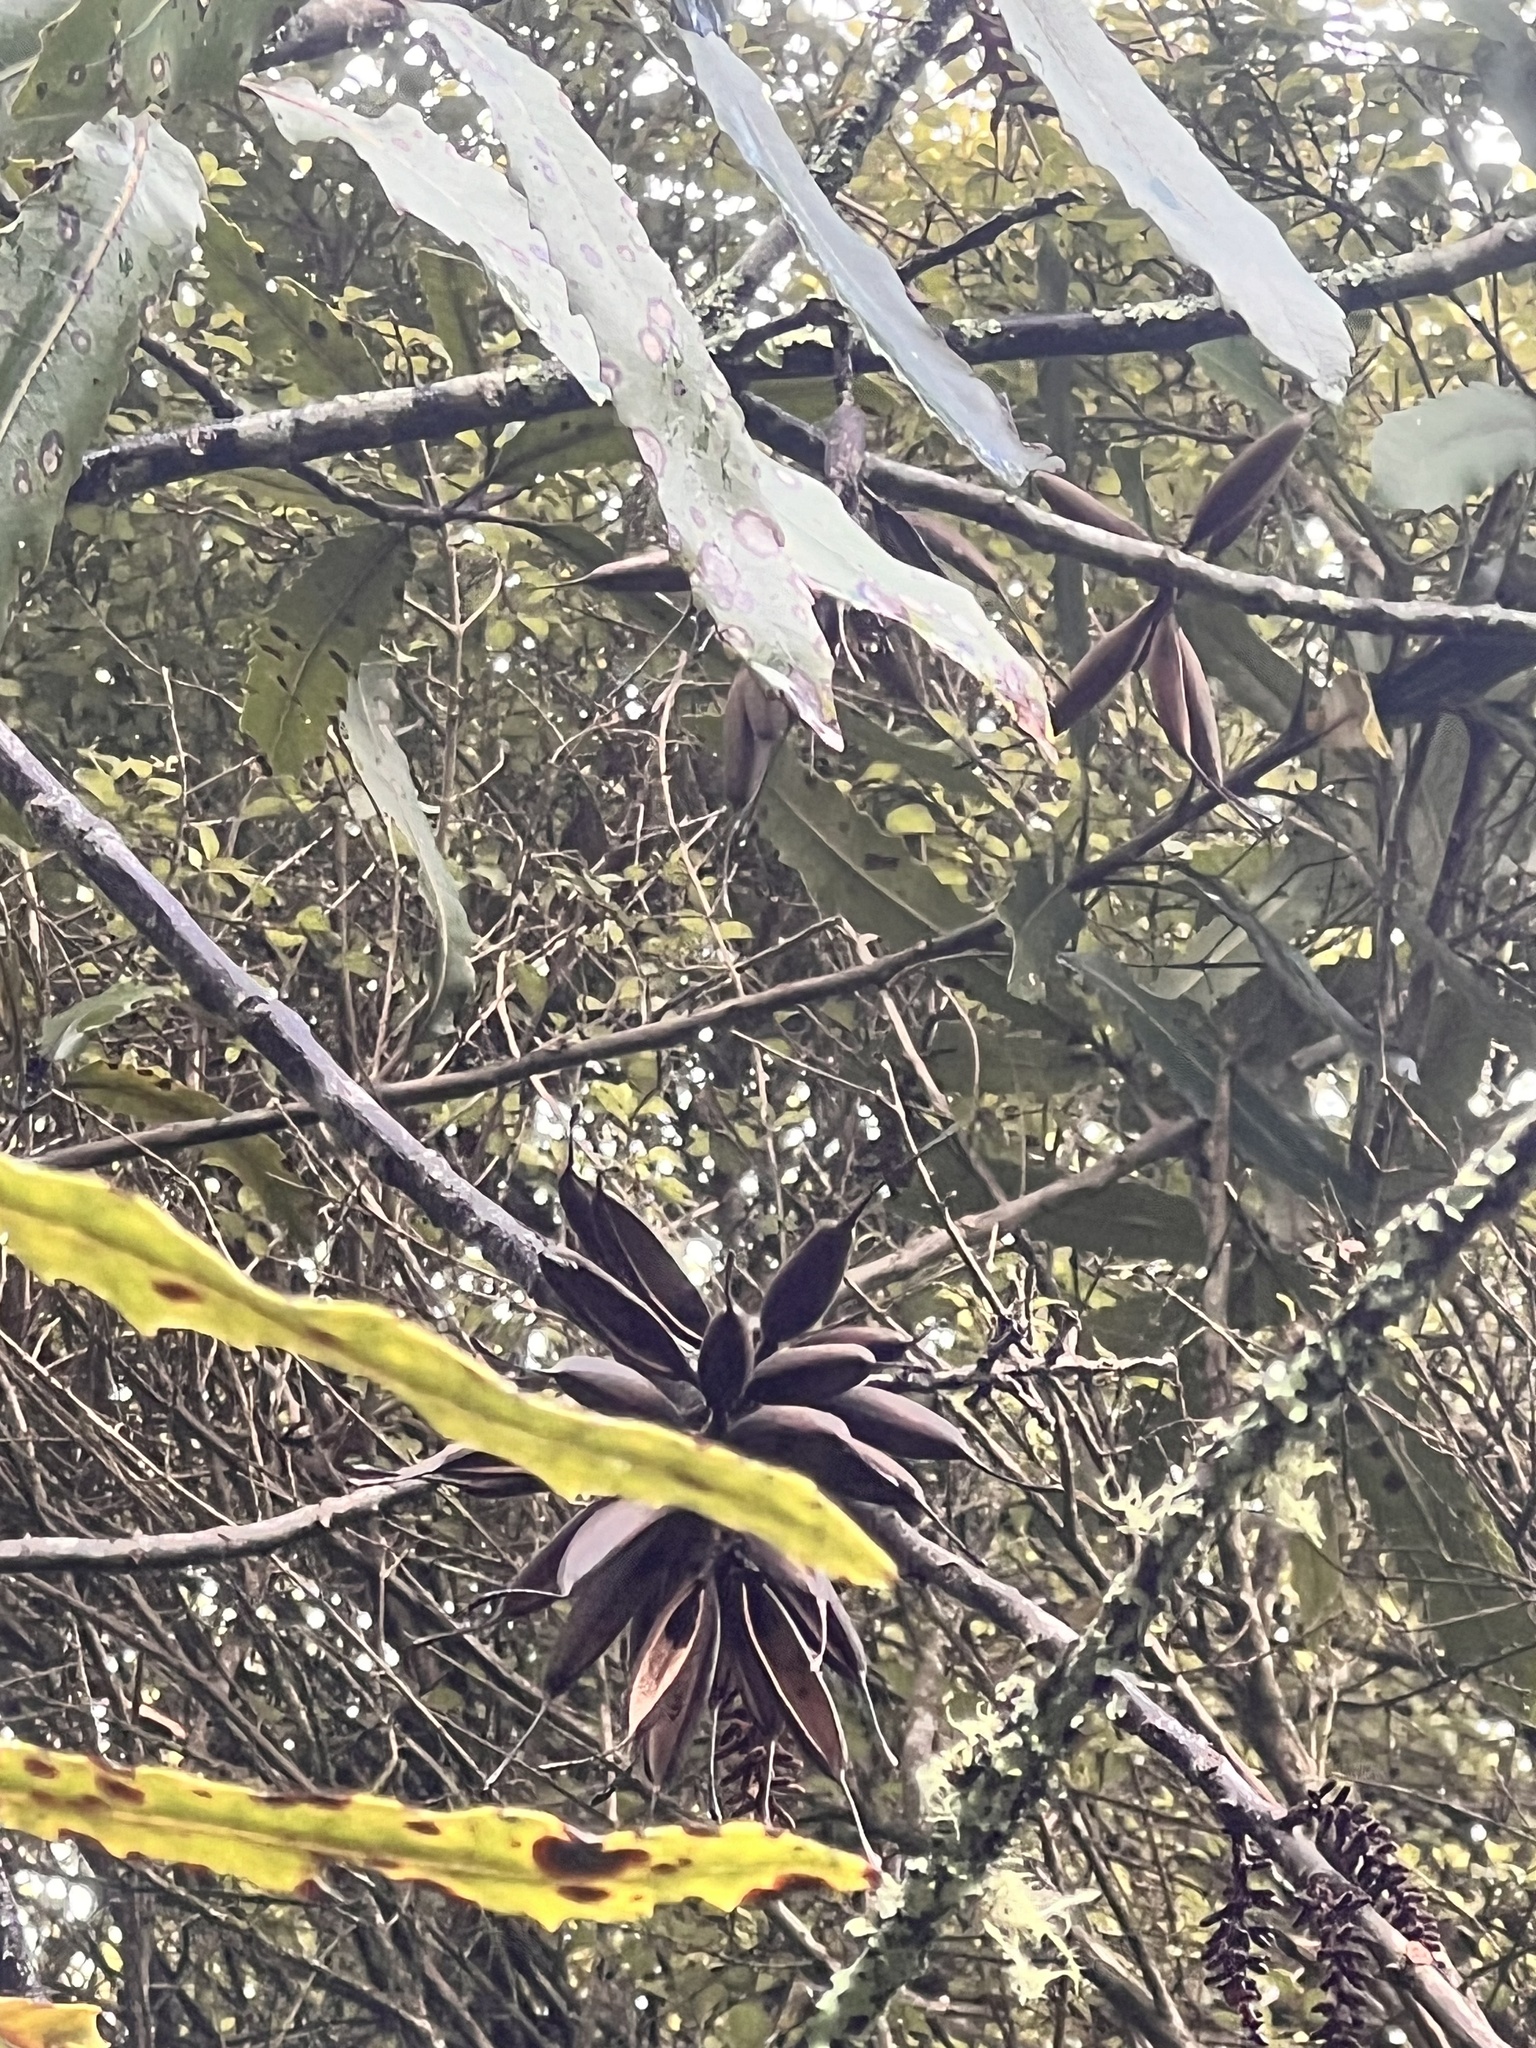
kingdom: Plantae
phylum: Tracheophyta
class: Magnoliopsida
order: Proteales
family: Proteaceae
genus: Knightia
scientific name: Knightia excelsa
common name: New zealand-honeysuckle
